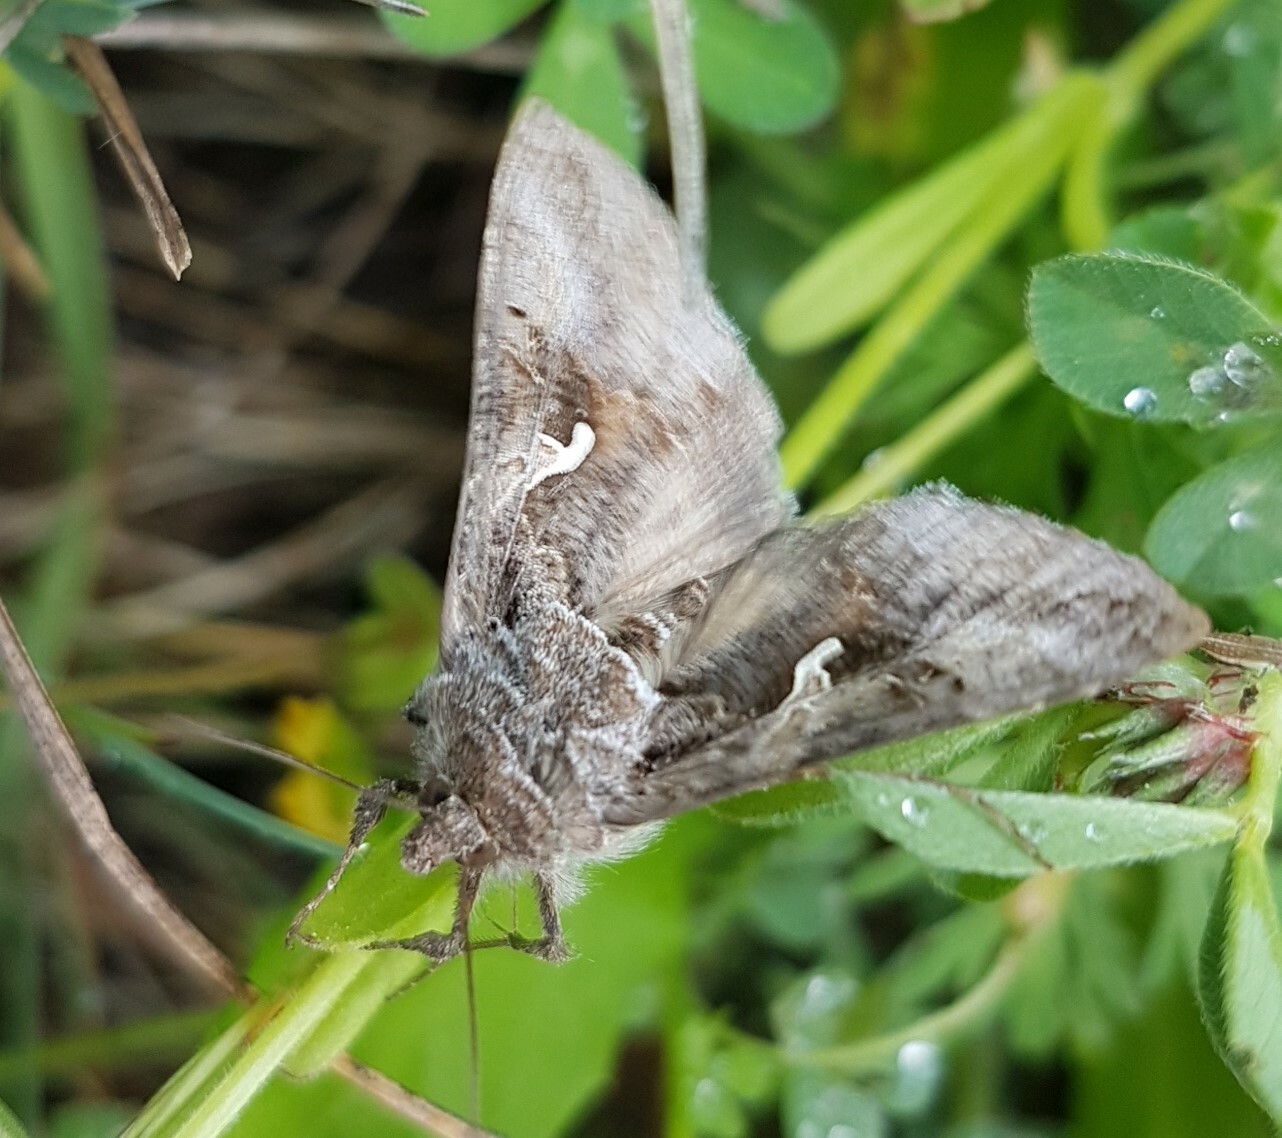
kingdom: Animalia
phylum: Arthropoda
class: Insecta
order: Lepidoptera
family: Noctuidae
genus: Autographa
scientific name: Autographa gamma
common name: Silver y
